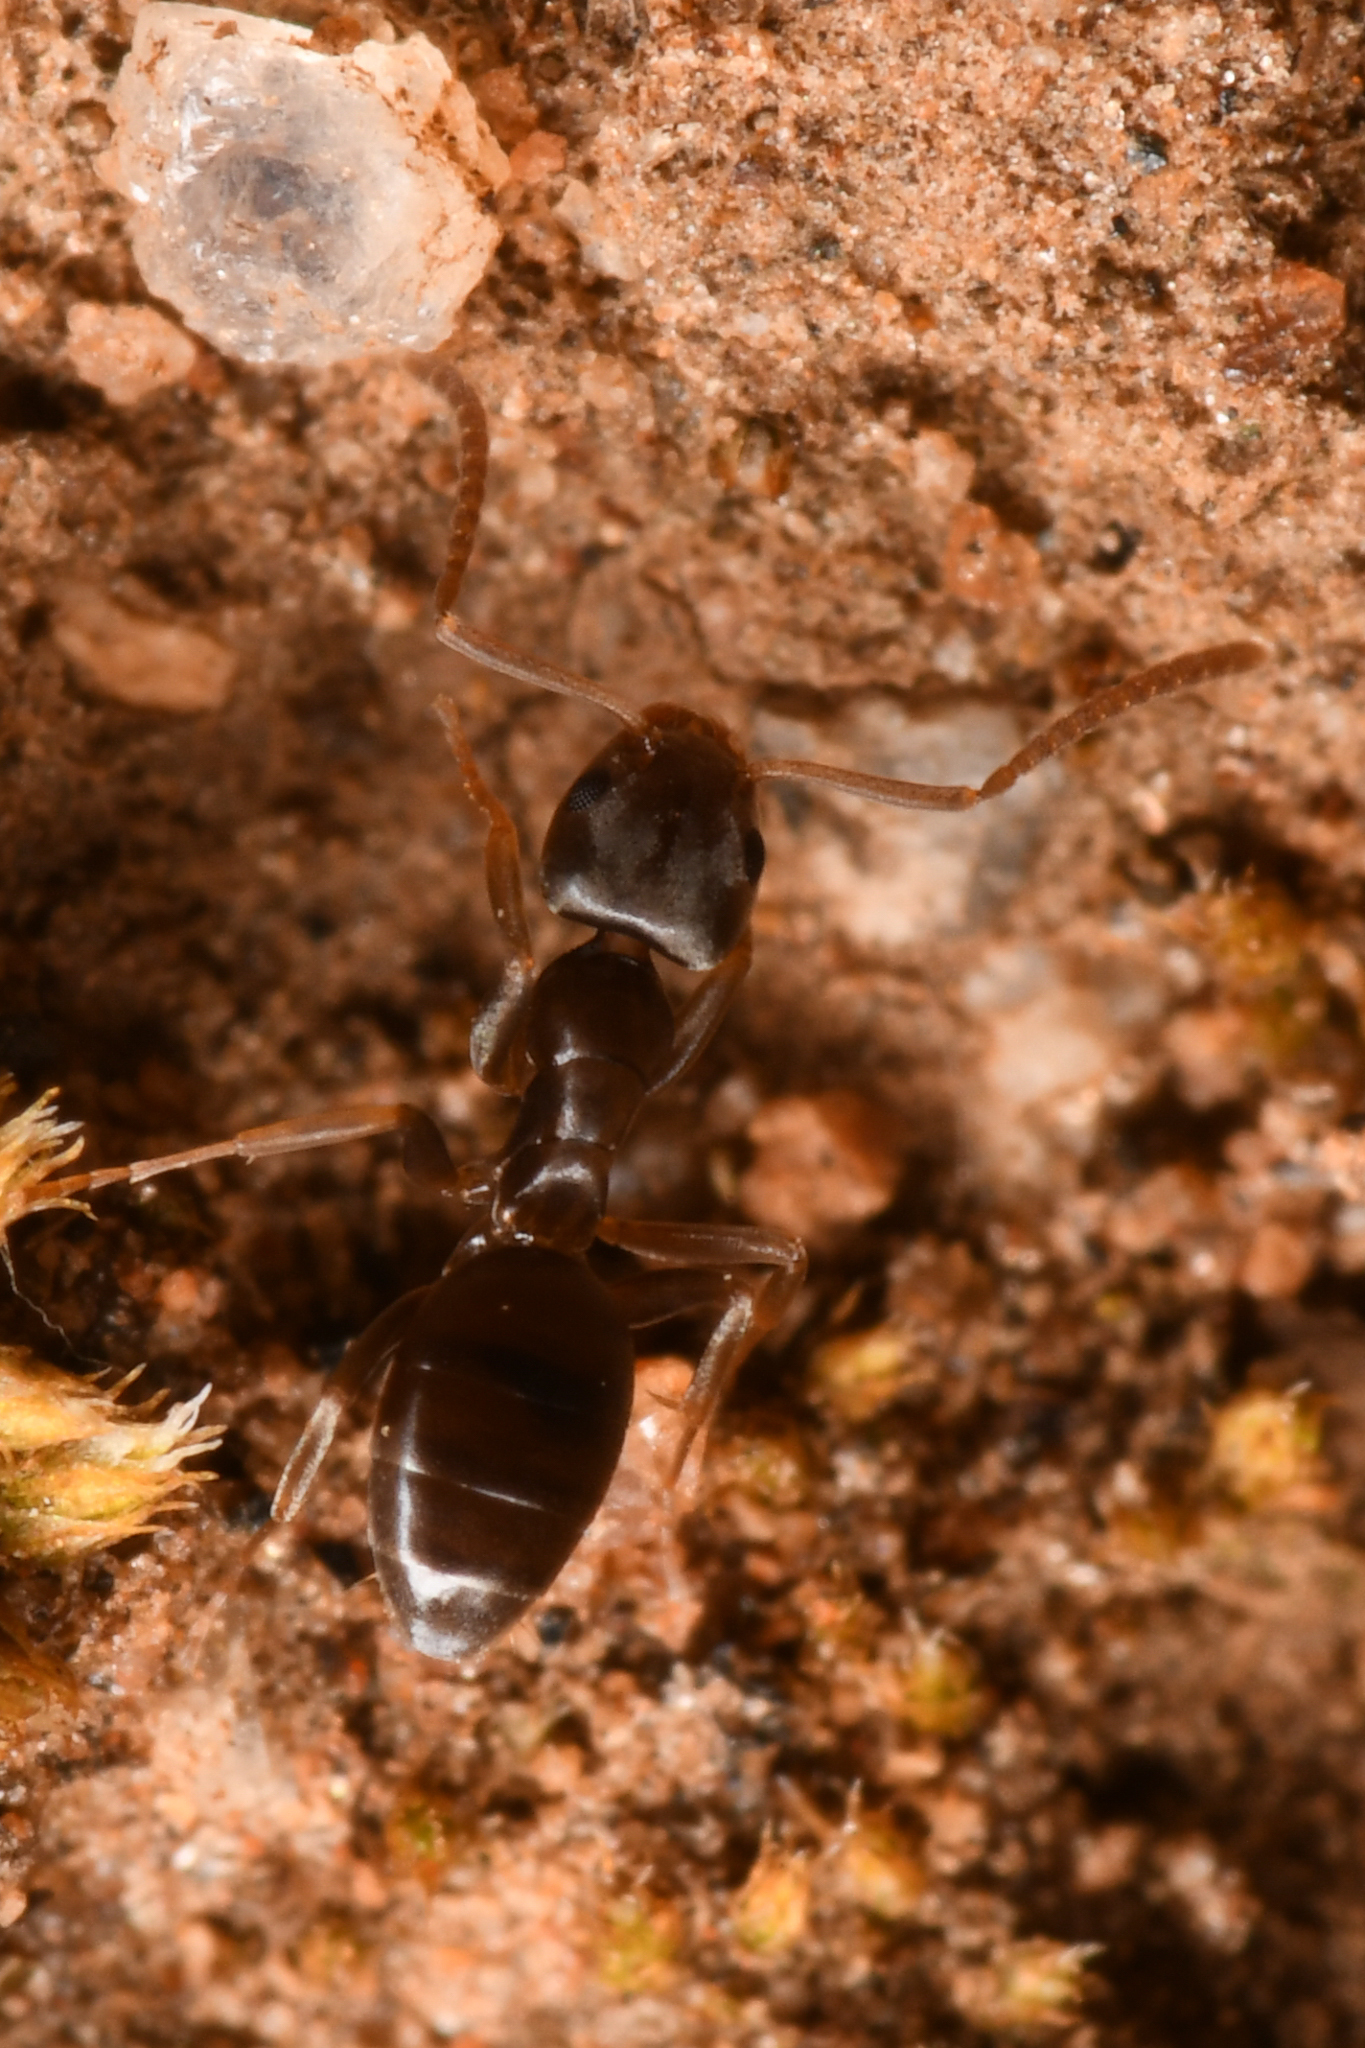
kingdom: Animalia
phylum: Arthropoda
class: Insecta
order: Hymenoptera
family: Formicidae
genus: Tapinoma
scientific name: Tapinoma sessile
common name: Odorous house ant
